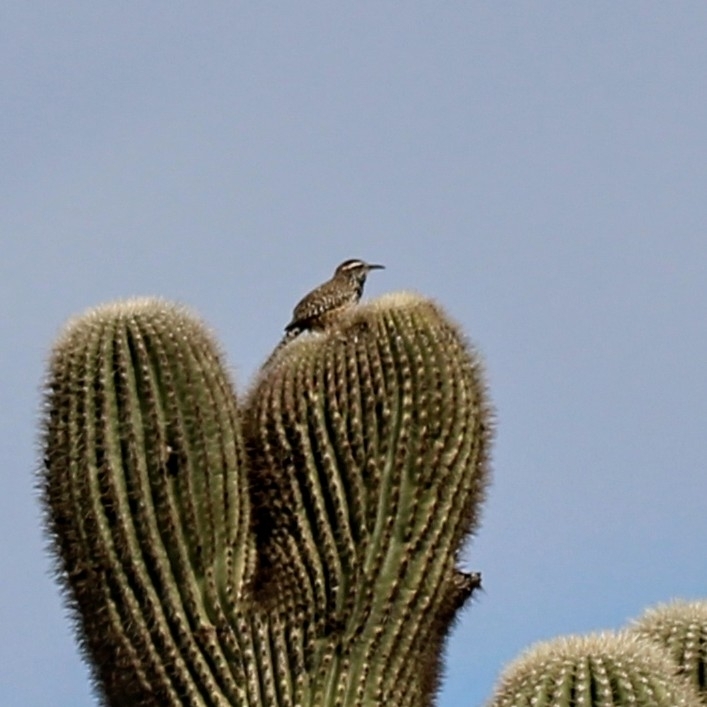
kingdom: Animalia
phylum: Chordata
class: Aves
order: Passeriformes
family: Troglodytidae
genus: Campylorhynchus
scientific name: Campylorhynchus brunneicapillus
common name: Cactus wren
